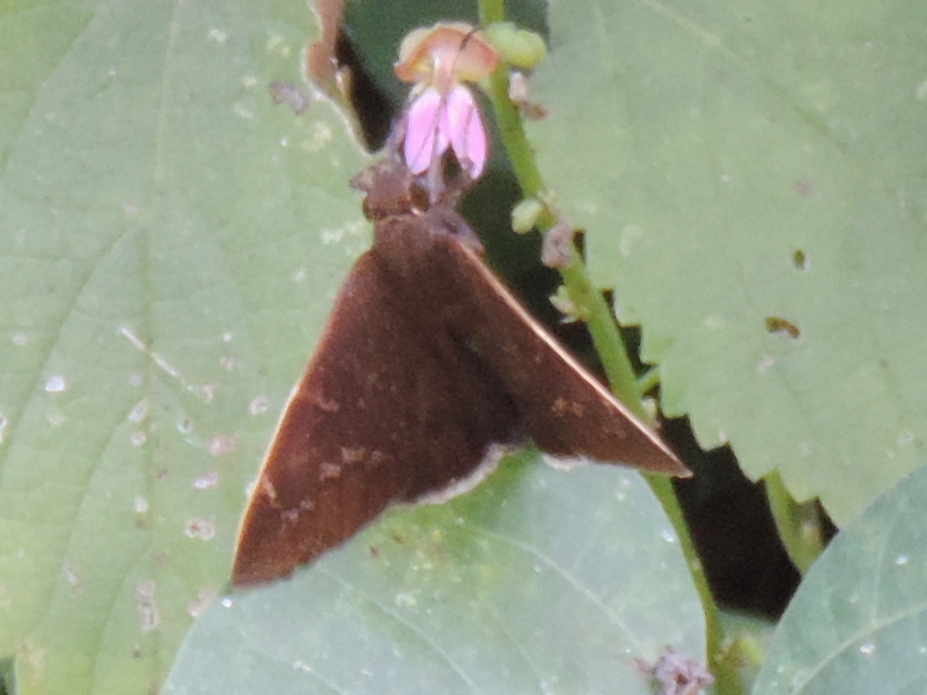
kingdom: Animalia
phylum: Arthropoda
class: Insecta
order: Lepidoptera
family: Hesperiidae
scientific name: Hesperiidae
